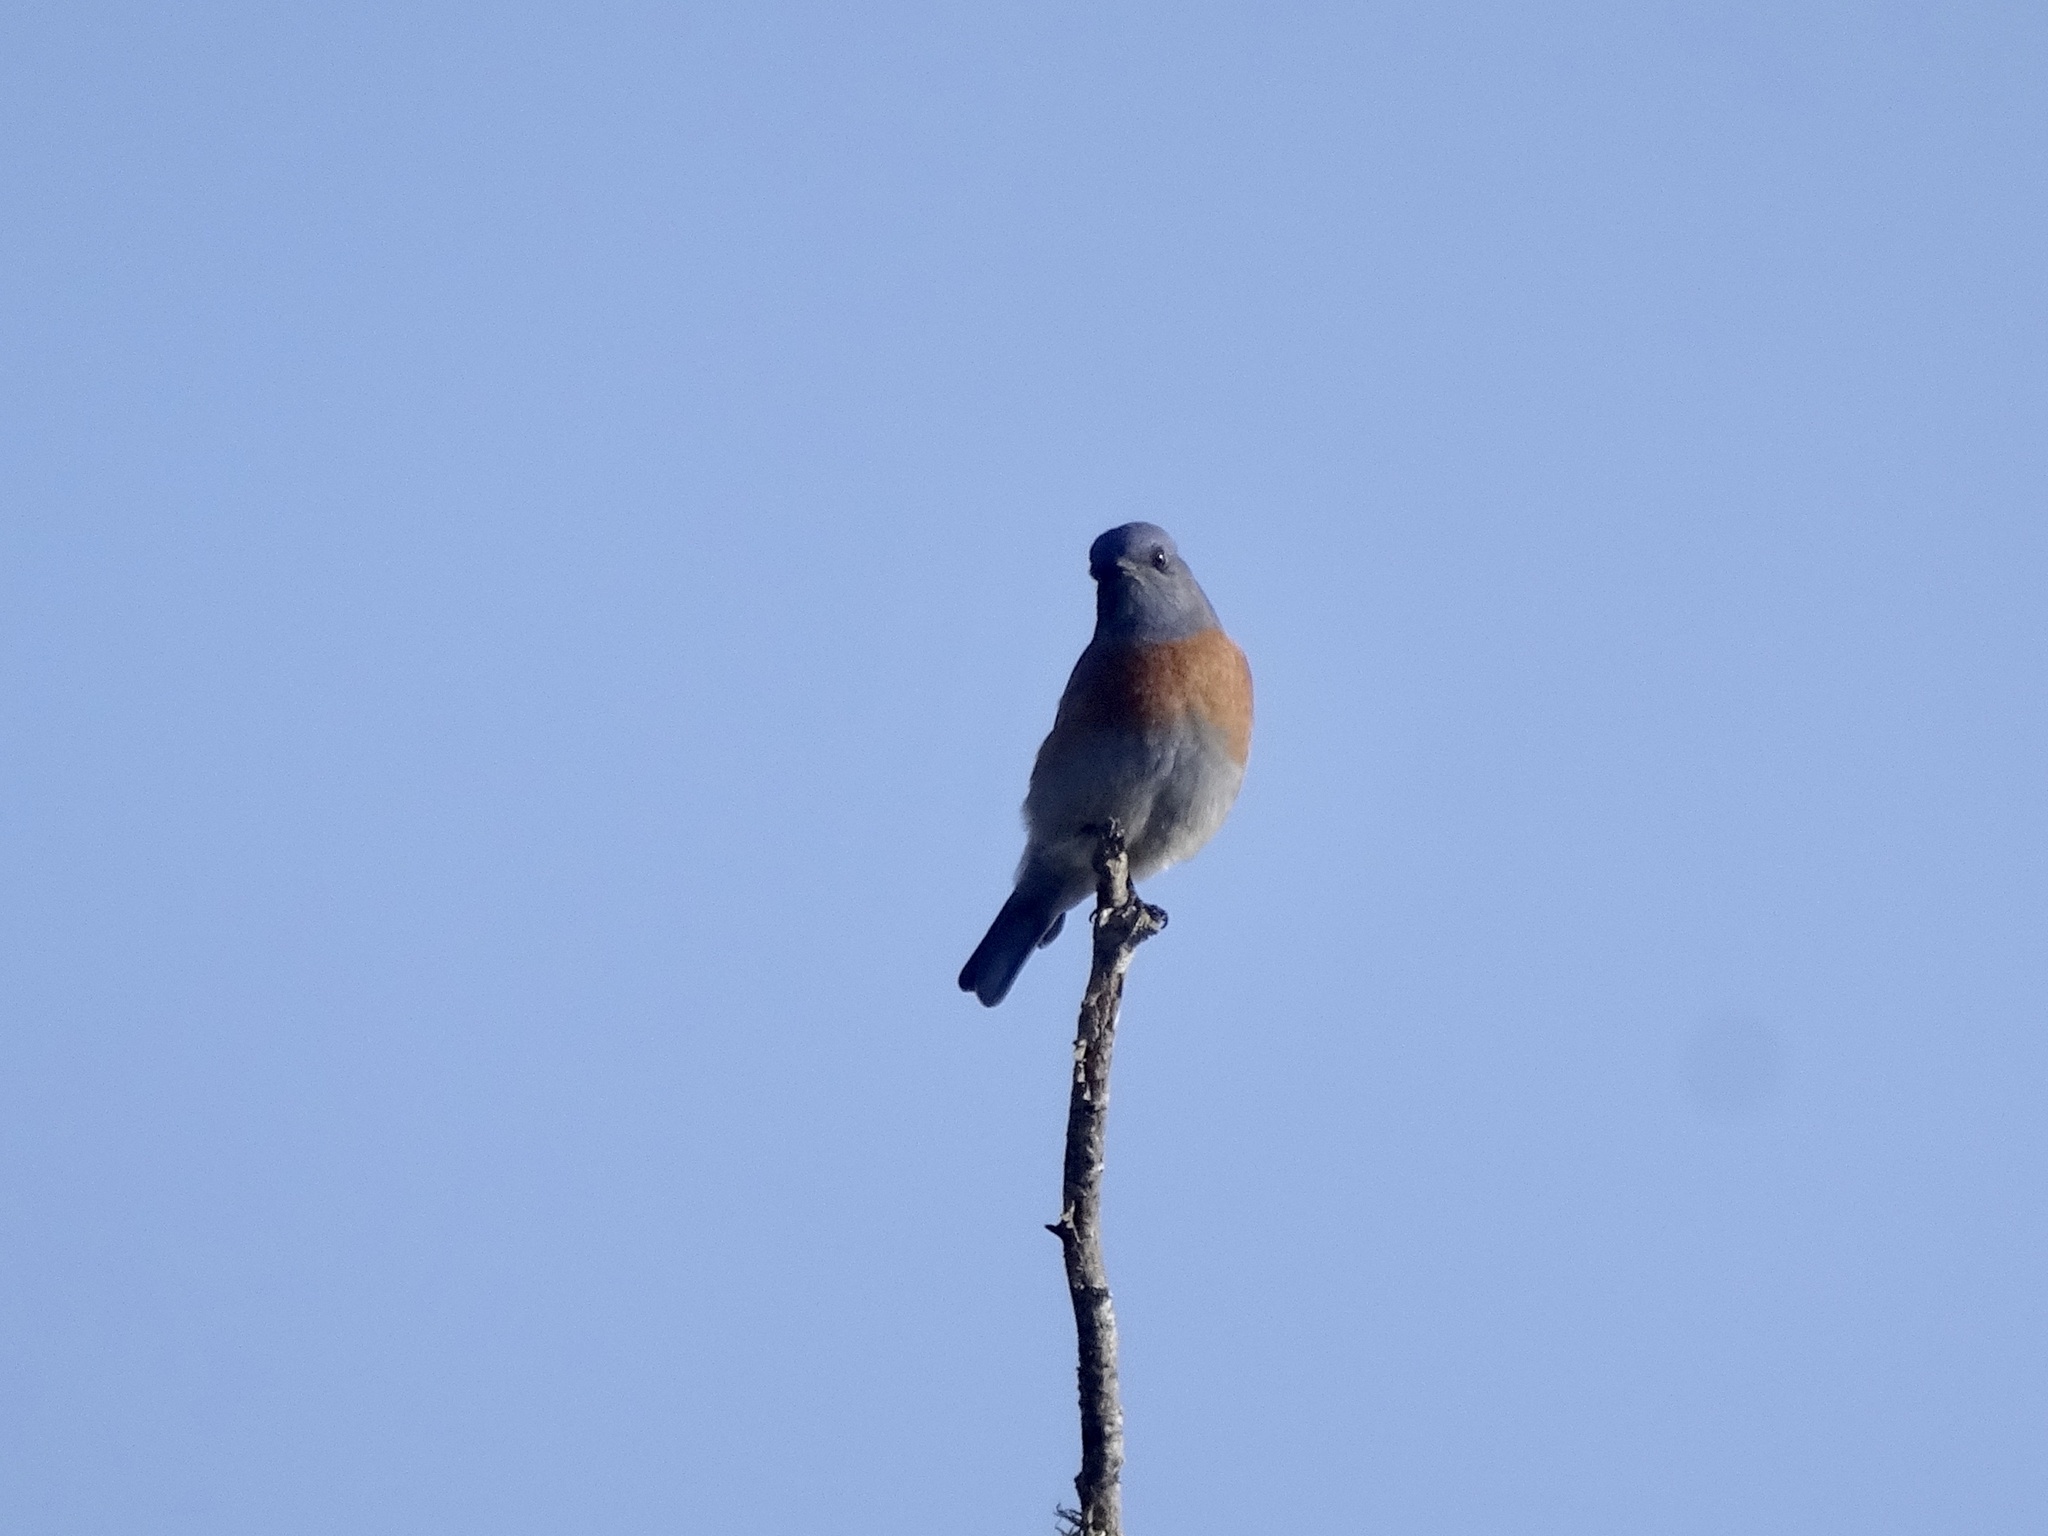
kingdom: Animalia
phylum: Chordata
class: Aves
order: Passeriformes
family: Turdidae
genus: Sialia
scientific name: Sialia mexicana
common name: Western bluebird
